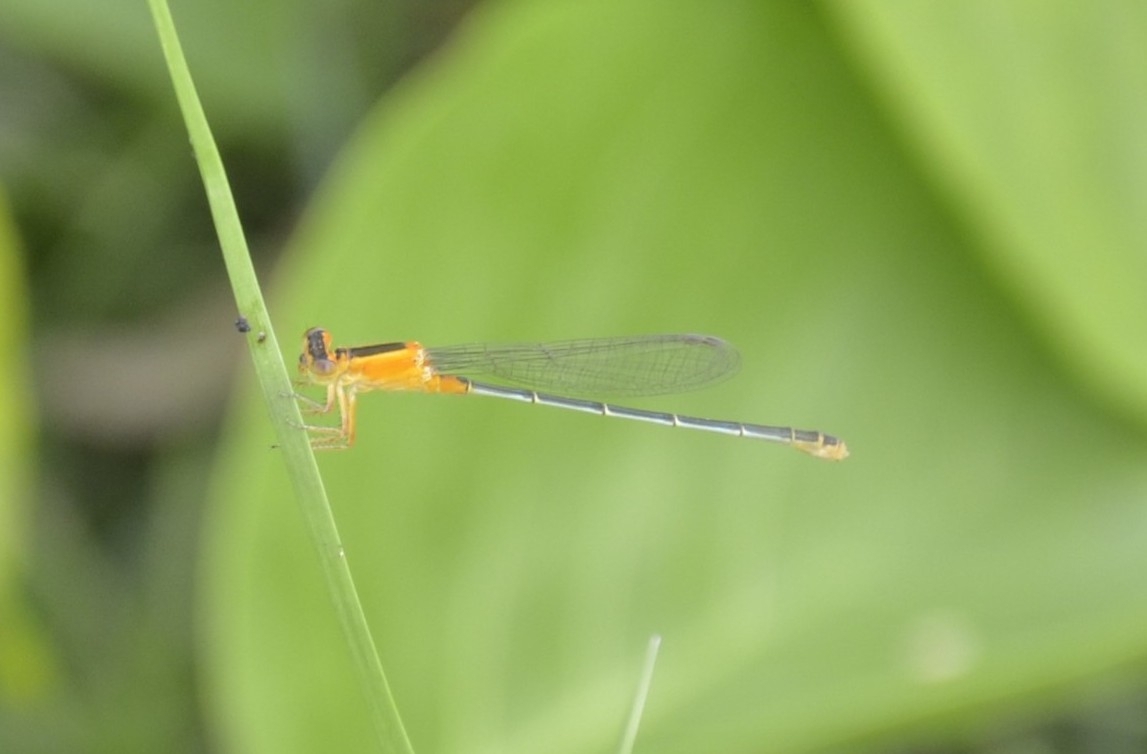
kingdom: Animalia
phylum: Arthropoda
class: Insecta
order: Odonata
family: Coenagrionidae
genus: Ischnura
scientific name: Ischnura senegalensis
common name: Tropical bluetail
